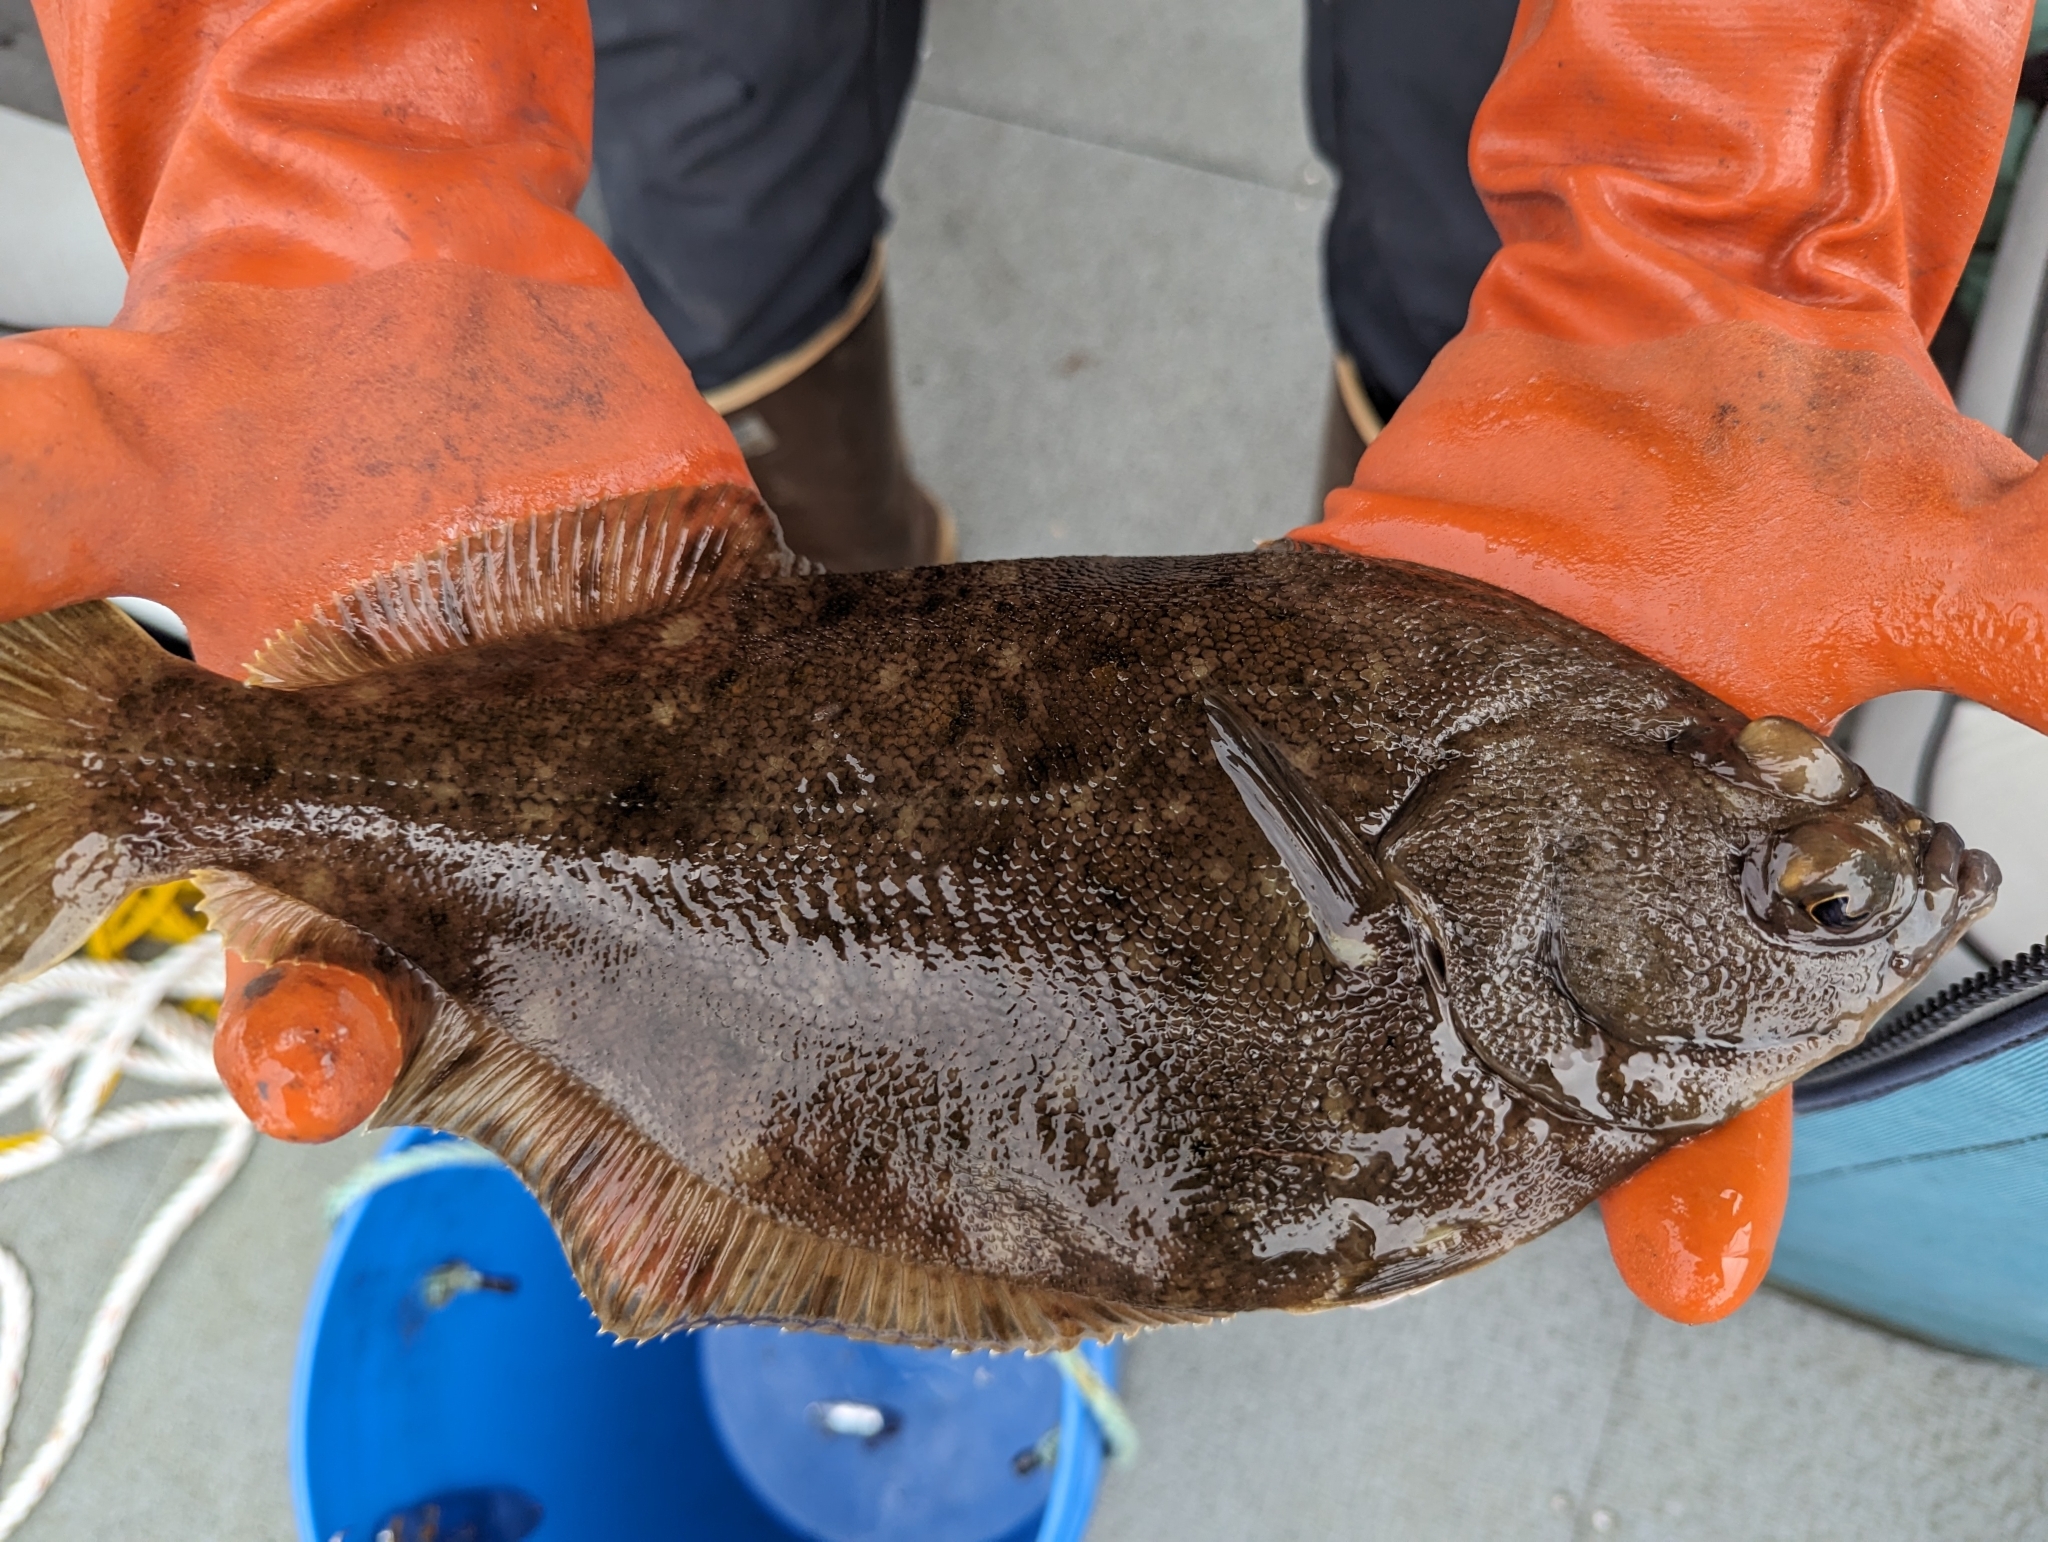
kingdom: Animalia
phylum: Chordata
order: Pleuronectiformes
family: Pleuronectidae
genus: Lepidopsetta
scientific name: Lepidopsetta bilineata
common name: Southern rock sole
